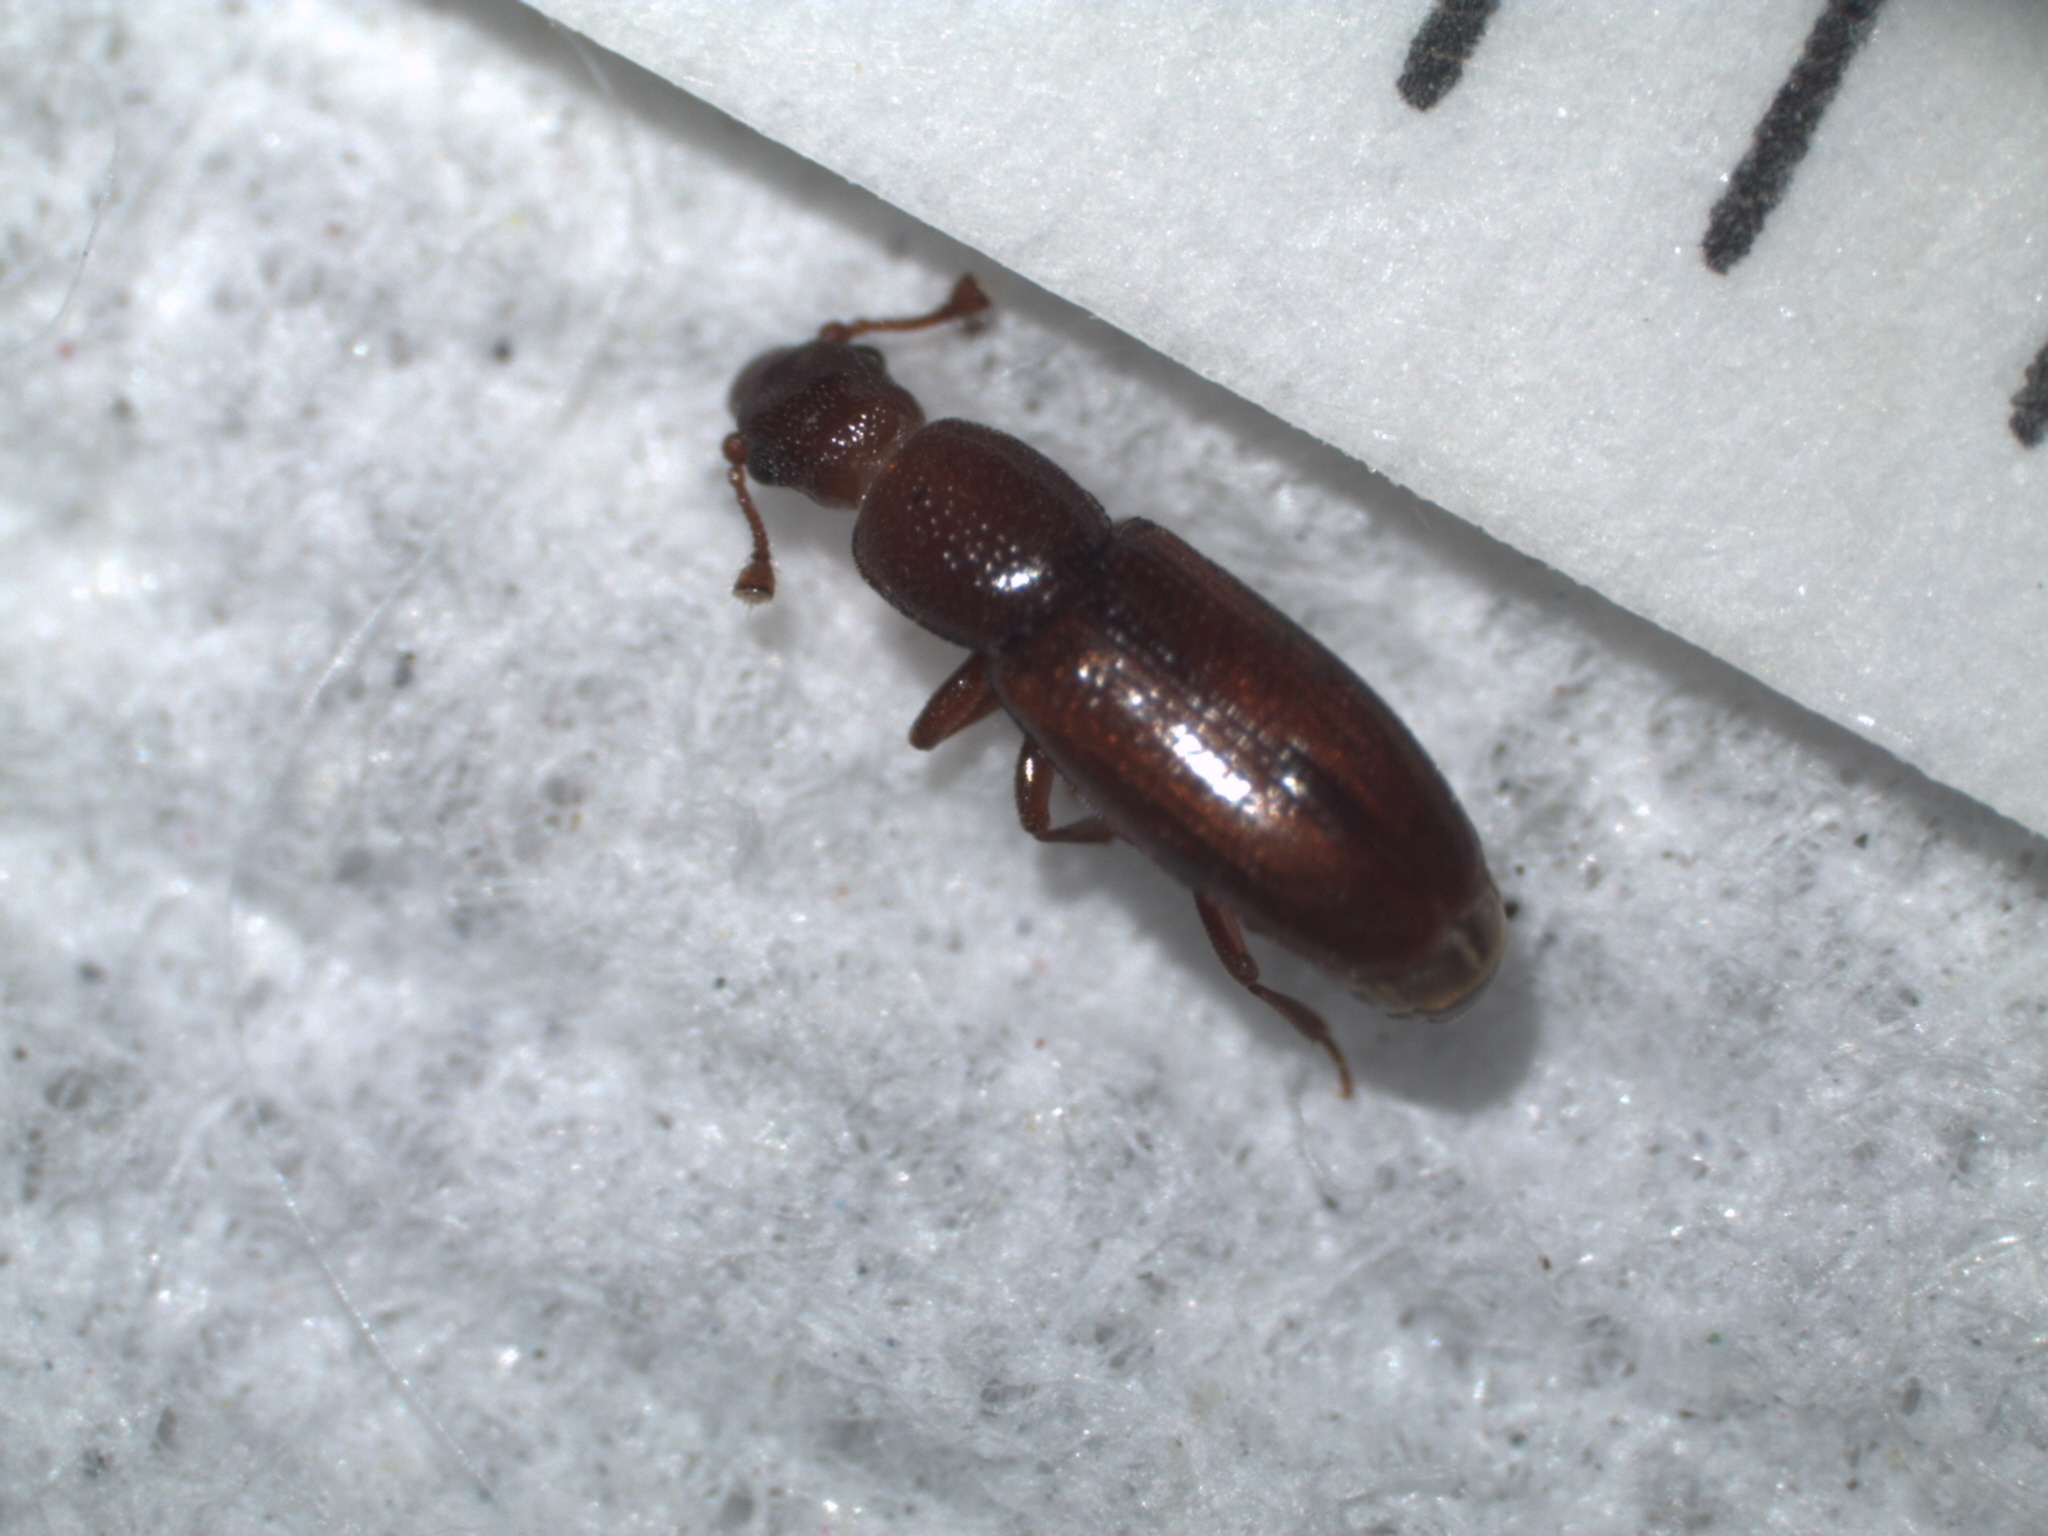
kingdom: Animalia
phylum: Arthropoda
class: Insecta
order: Coleoptera
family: Monotomidae
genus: Rhizophagus
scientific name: Rhizophagus brunneus
